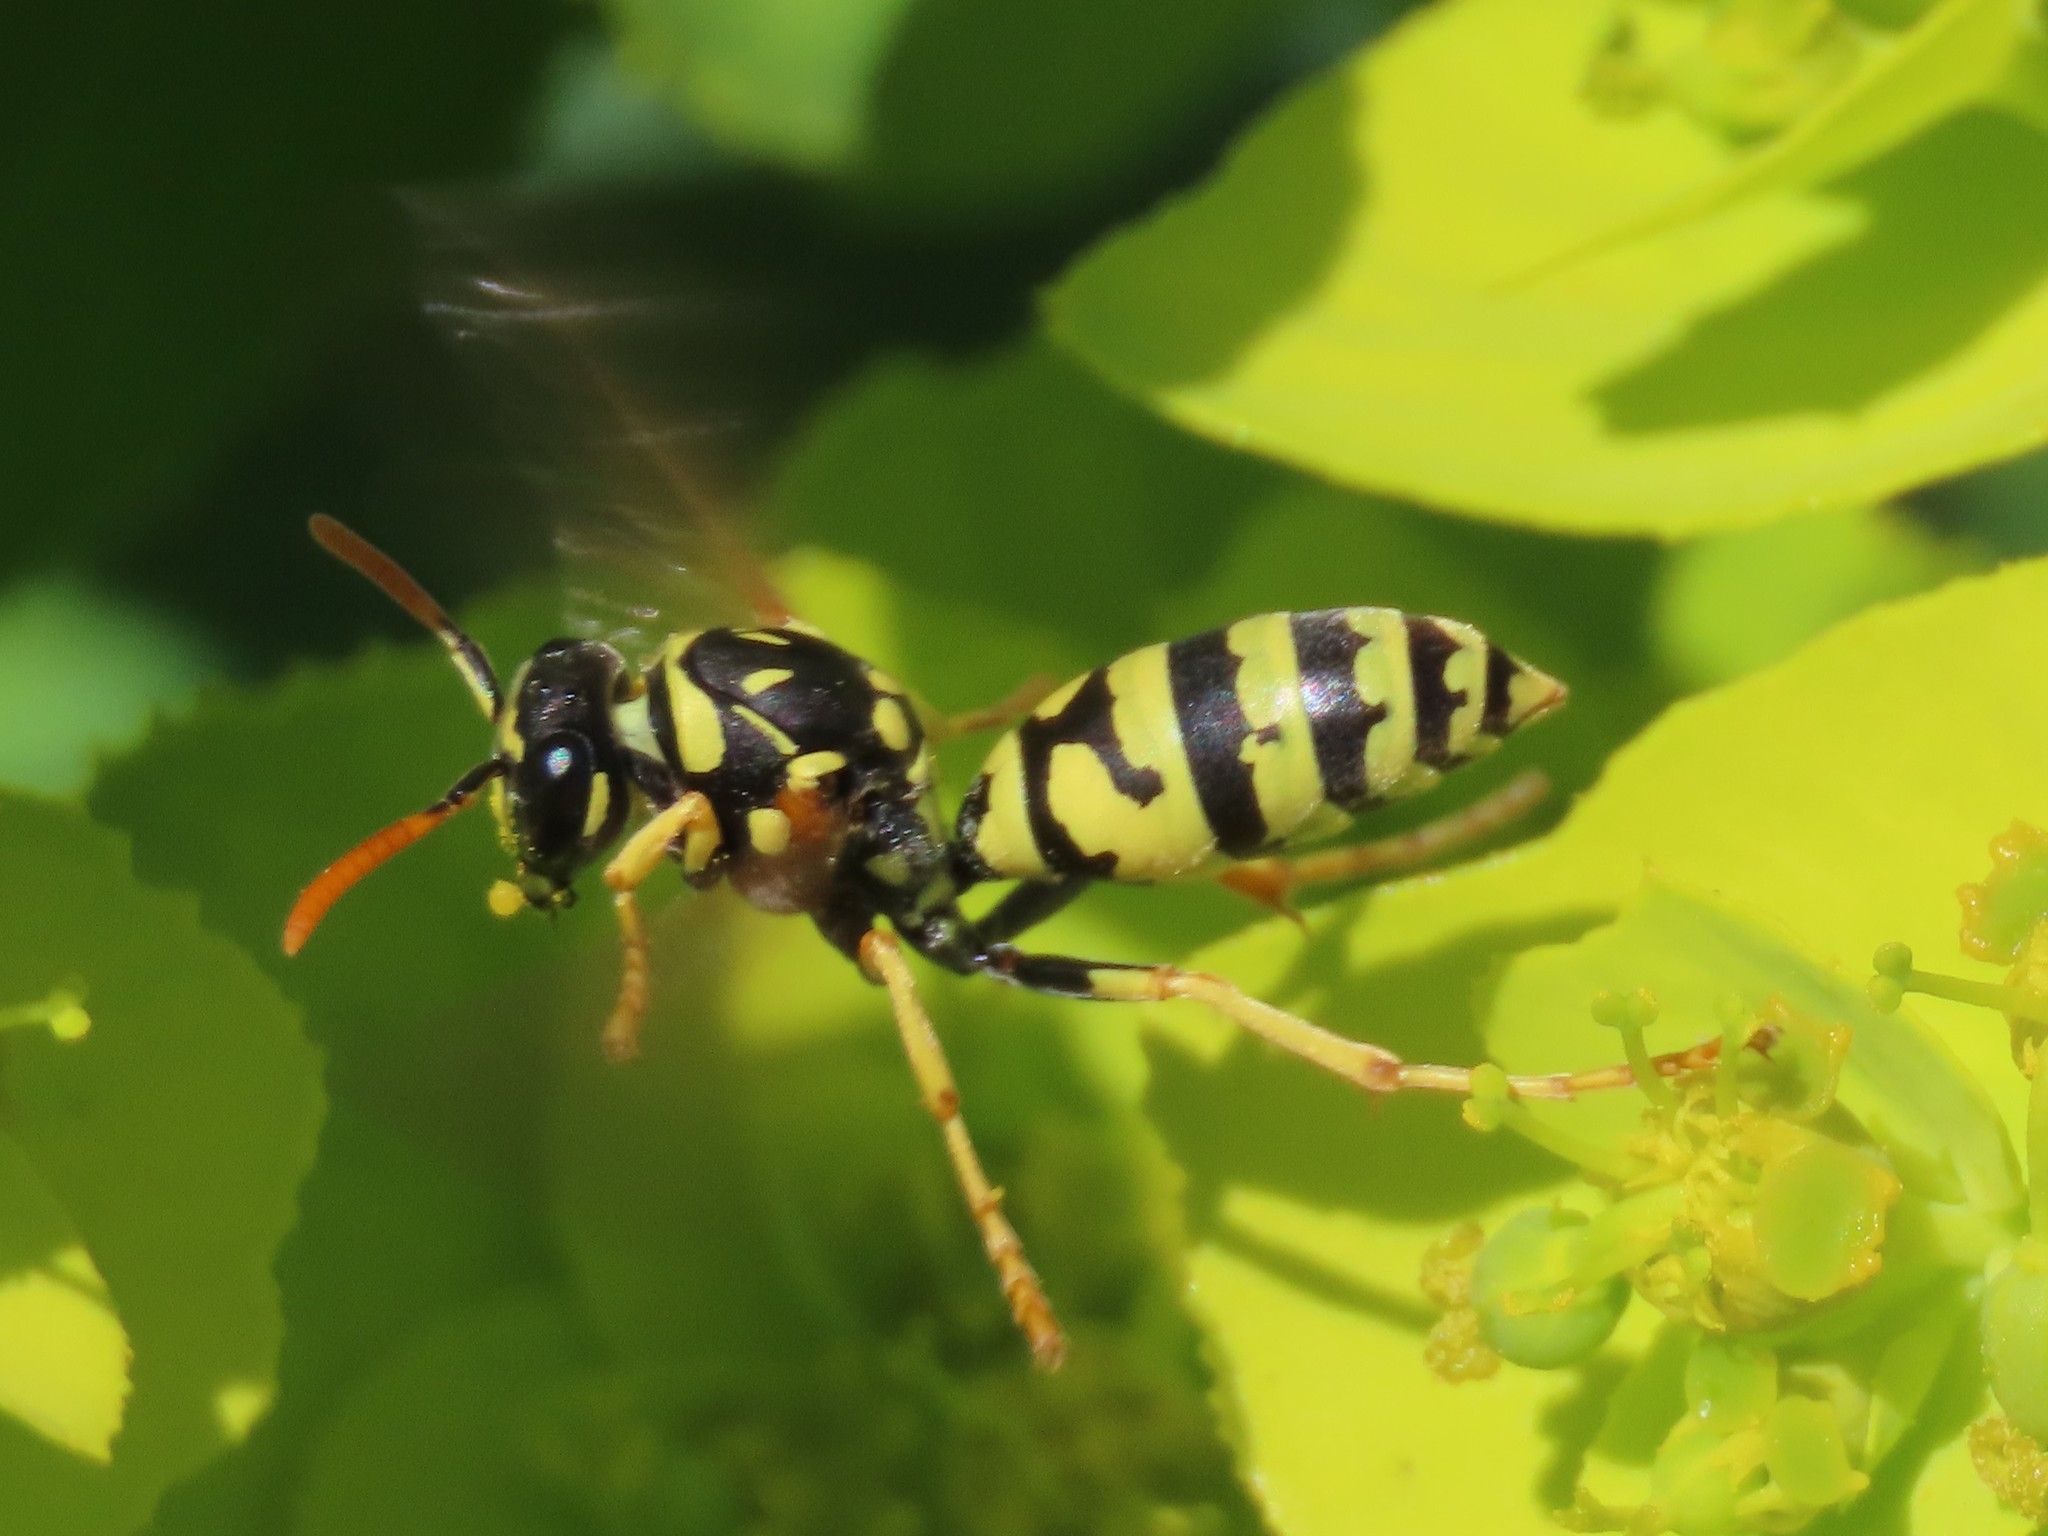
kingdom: Animalia
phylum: Arthropoda
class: Insecta
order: Hymenoptera
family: Eumenidae
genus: Polistes
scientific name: Polistes gallicus
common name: Paper wasp
